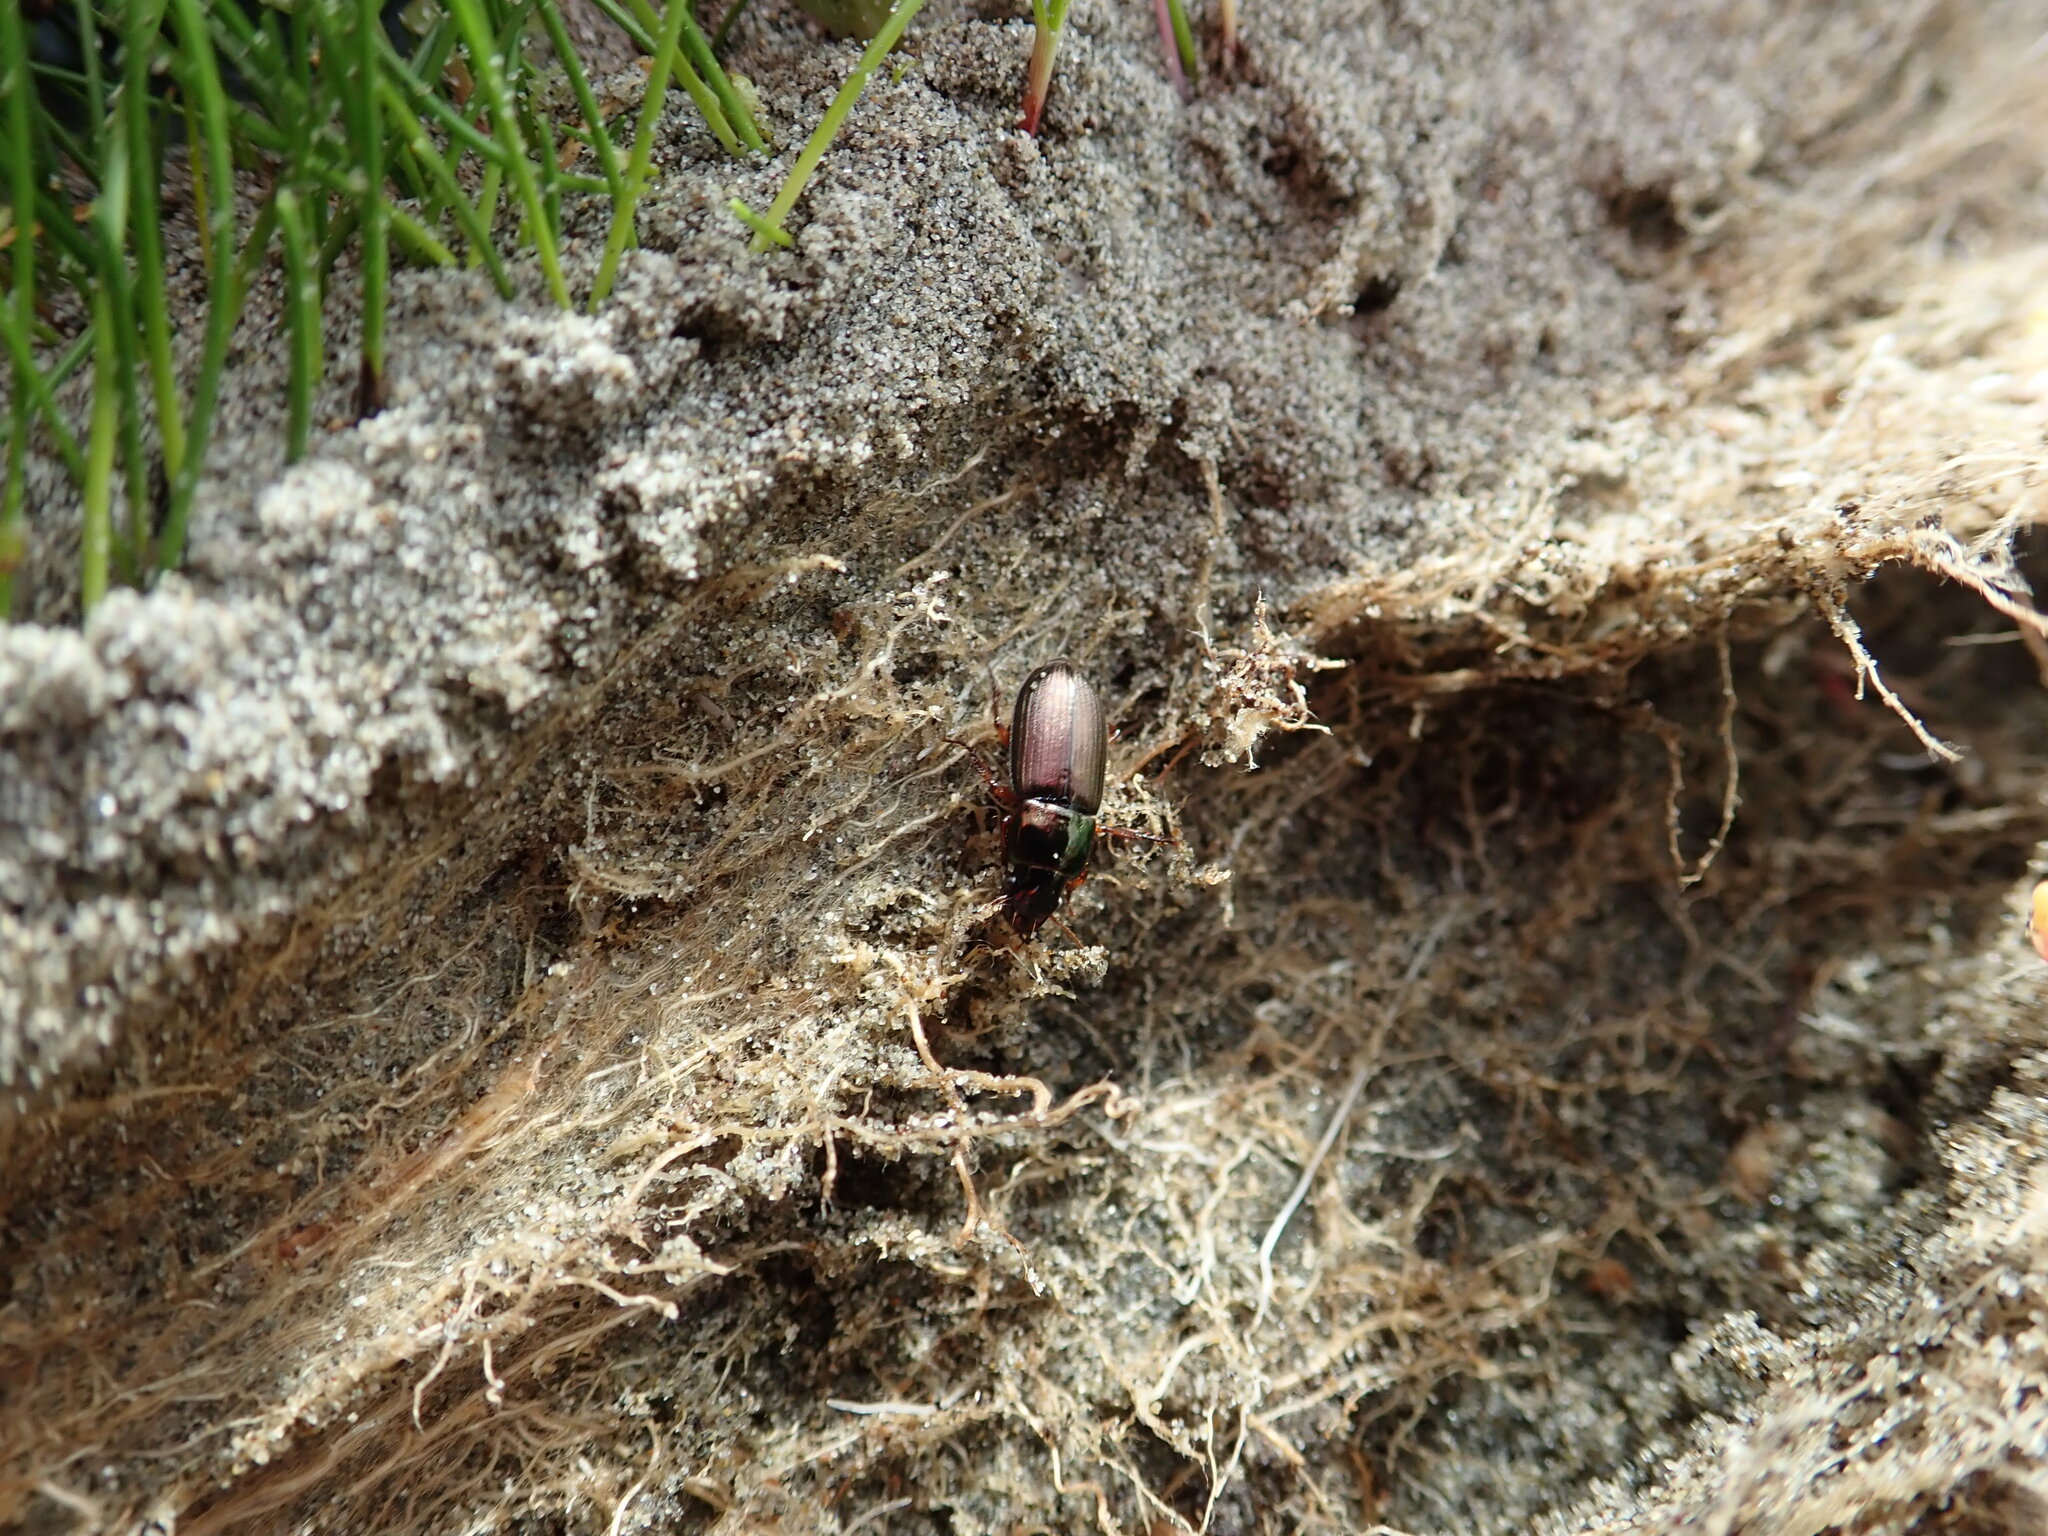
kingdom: Animalia
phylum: Arthropoda
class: Insecta
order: Coleoptera
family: Carabidae
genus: Harpalus
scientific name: Harpalus affinis
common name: Polychrome harp ground beetle
